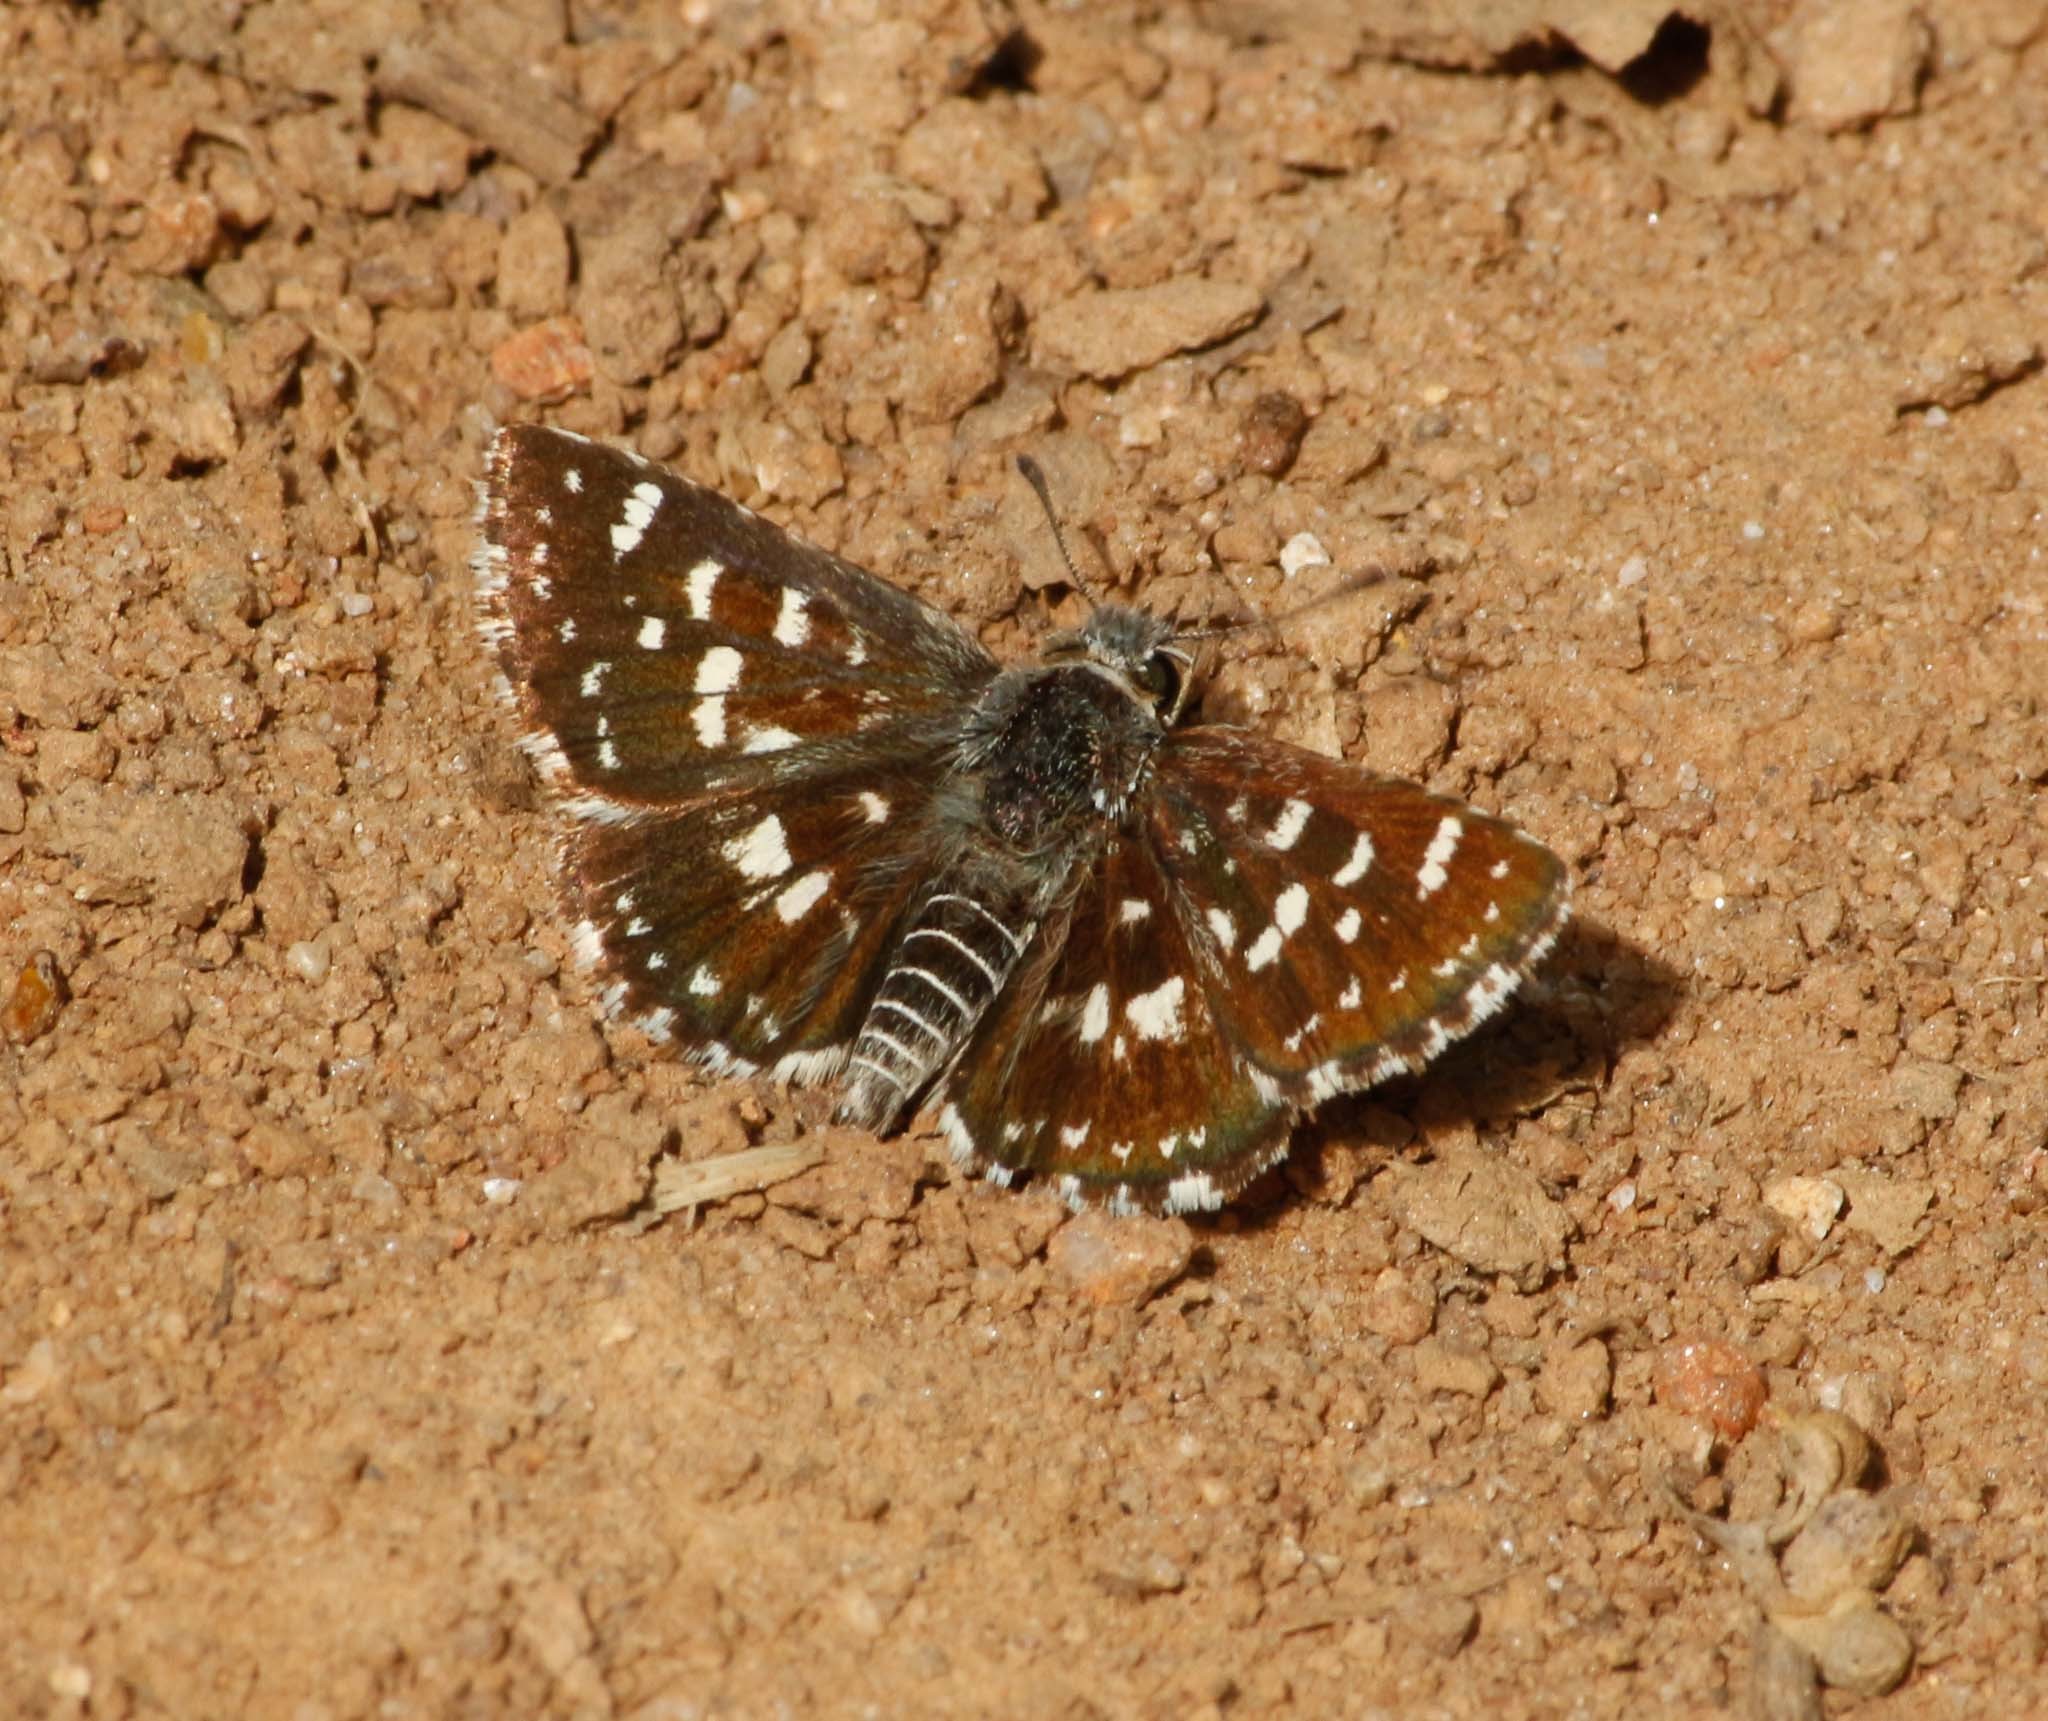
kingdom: Animalia
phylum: Arthropoda
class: Insecta
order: Lepidoptera
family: Hesperiidae
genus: Spialia
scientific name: Spialia galba
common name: Indian skipper
